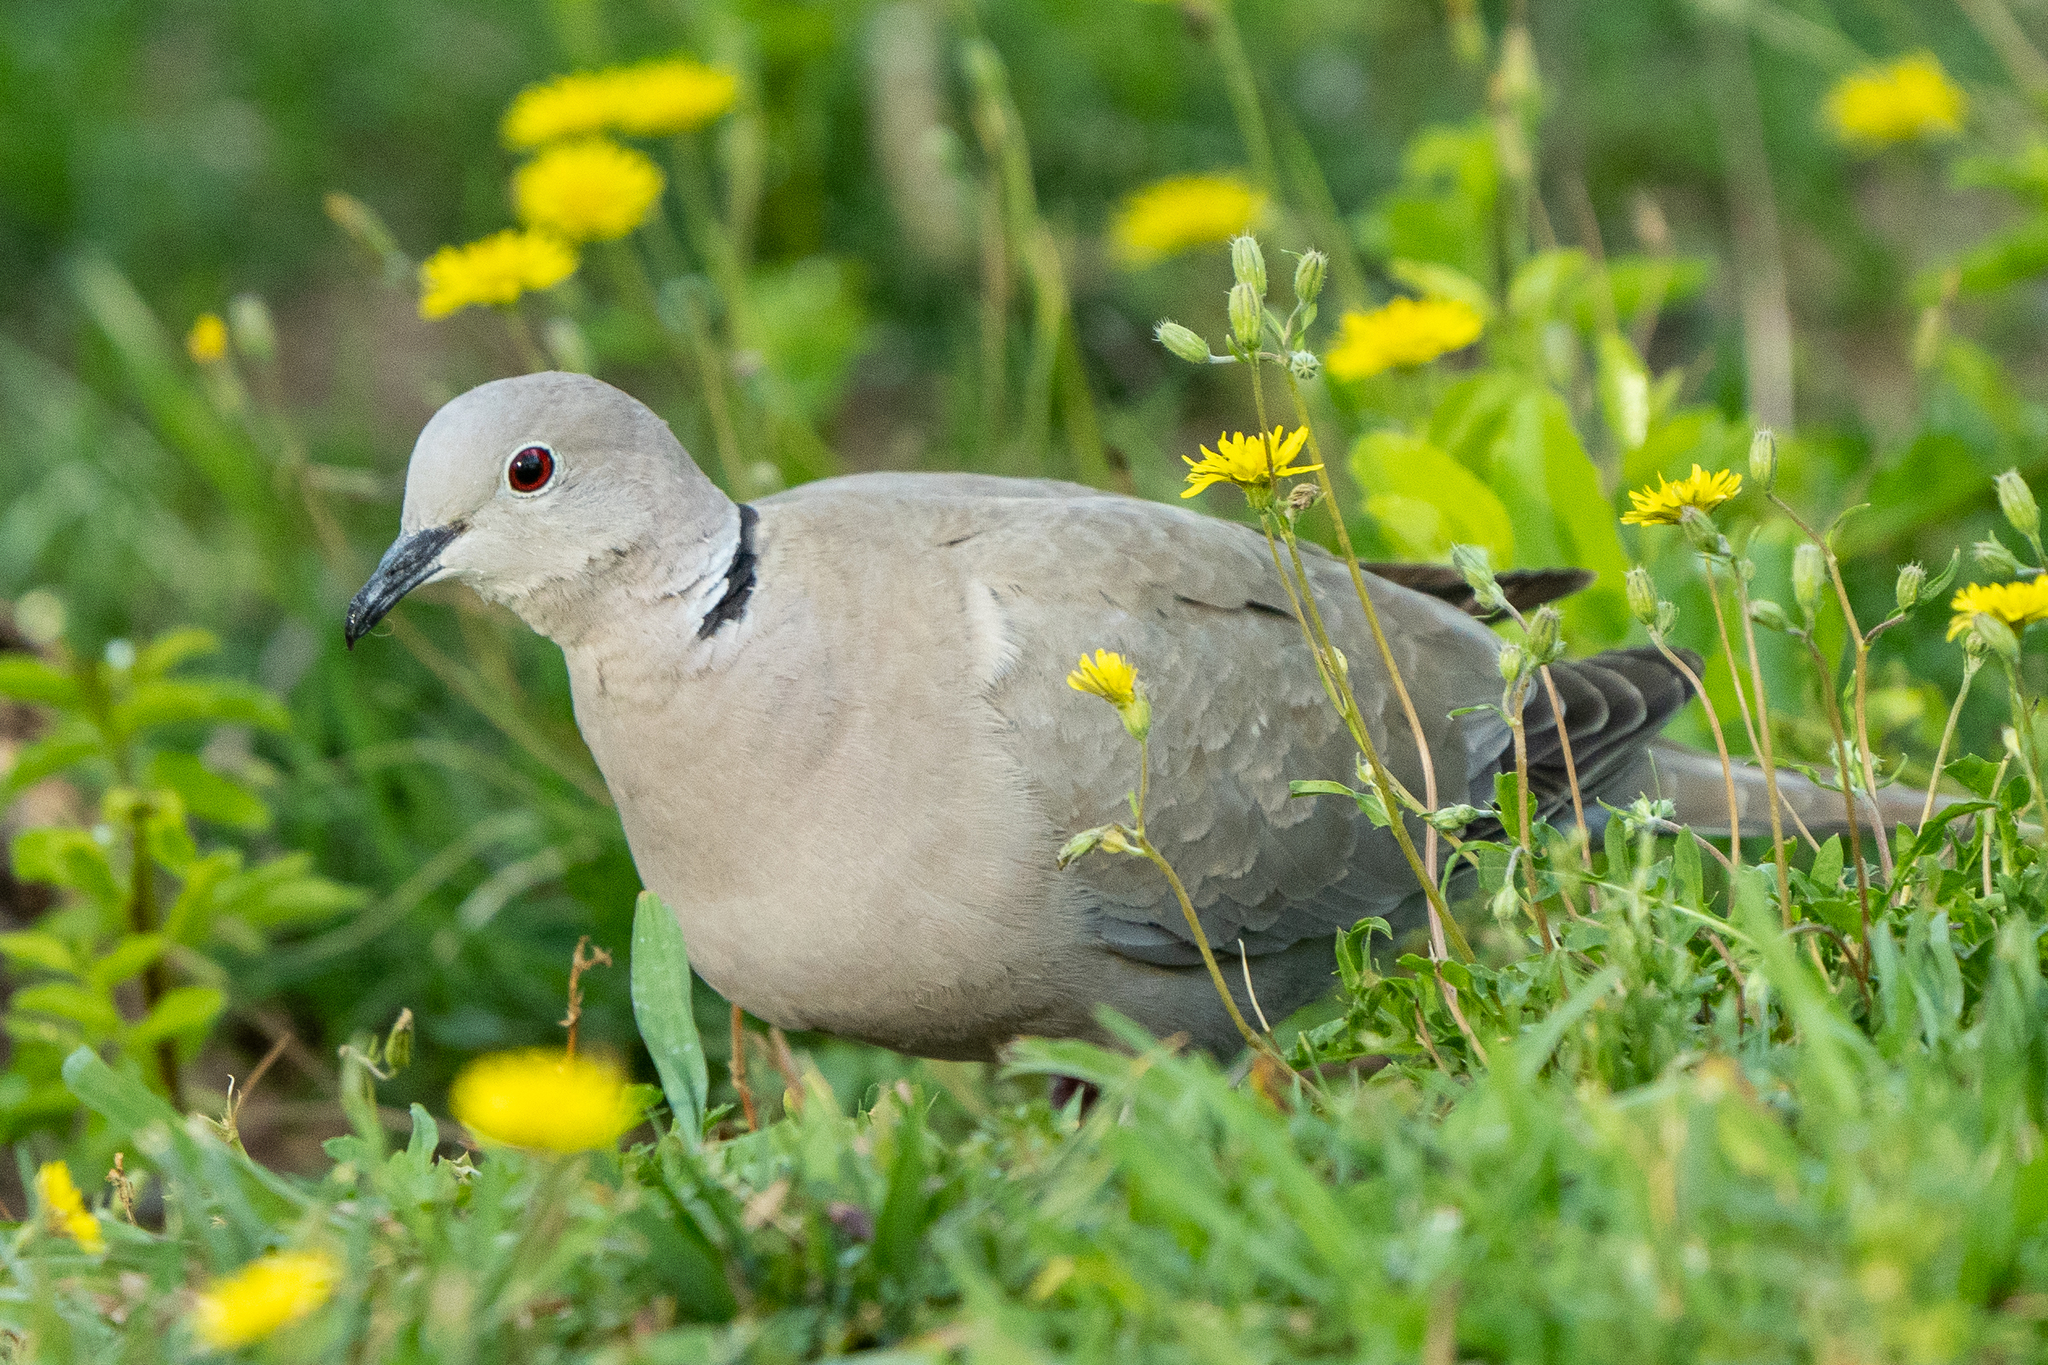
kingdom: Animalia
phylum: Chordata
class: Aves
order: Columbiformes
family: Columbidae
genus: Streptopelia
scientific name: Streptopelia decaocto
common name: Eurasian collared dove
